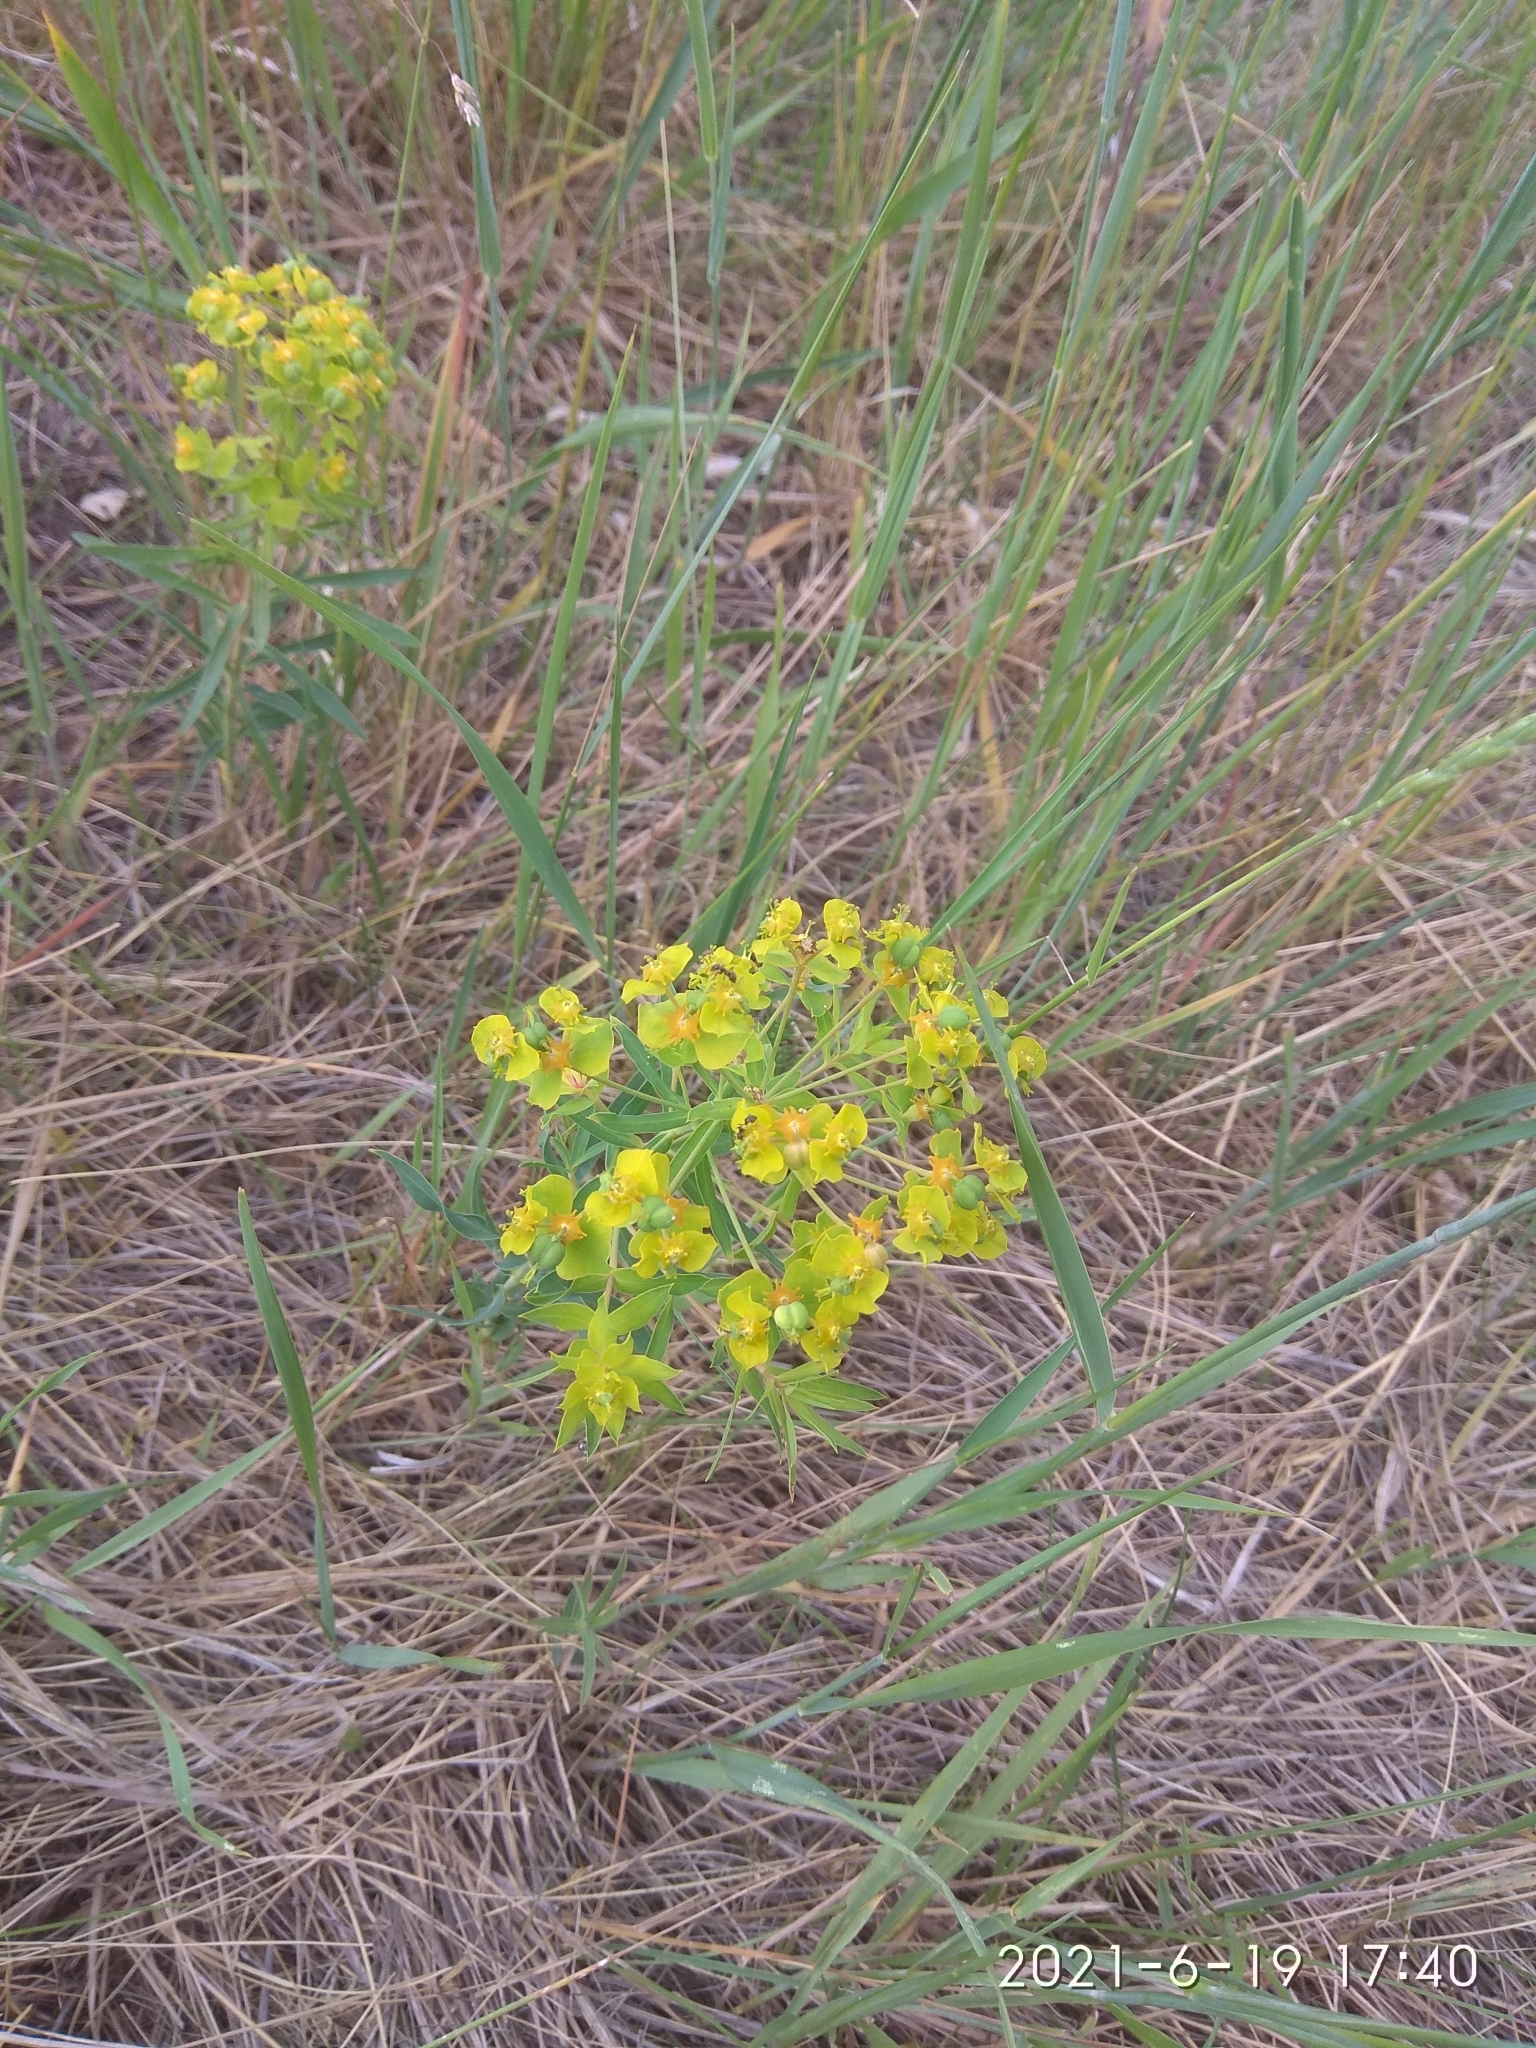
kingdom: Plantae
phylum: Tracheophyta
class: Magnoliopsida
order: Malpighiales
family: Euphorbiaceae
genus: Euphorbia
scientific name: Euphorbia virgata
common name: Leafy spurge
